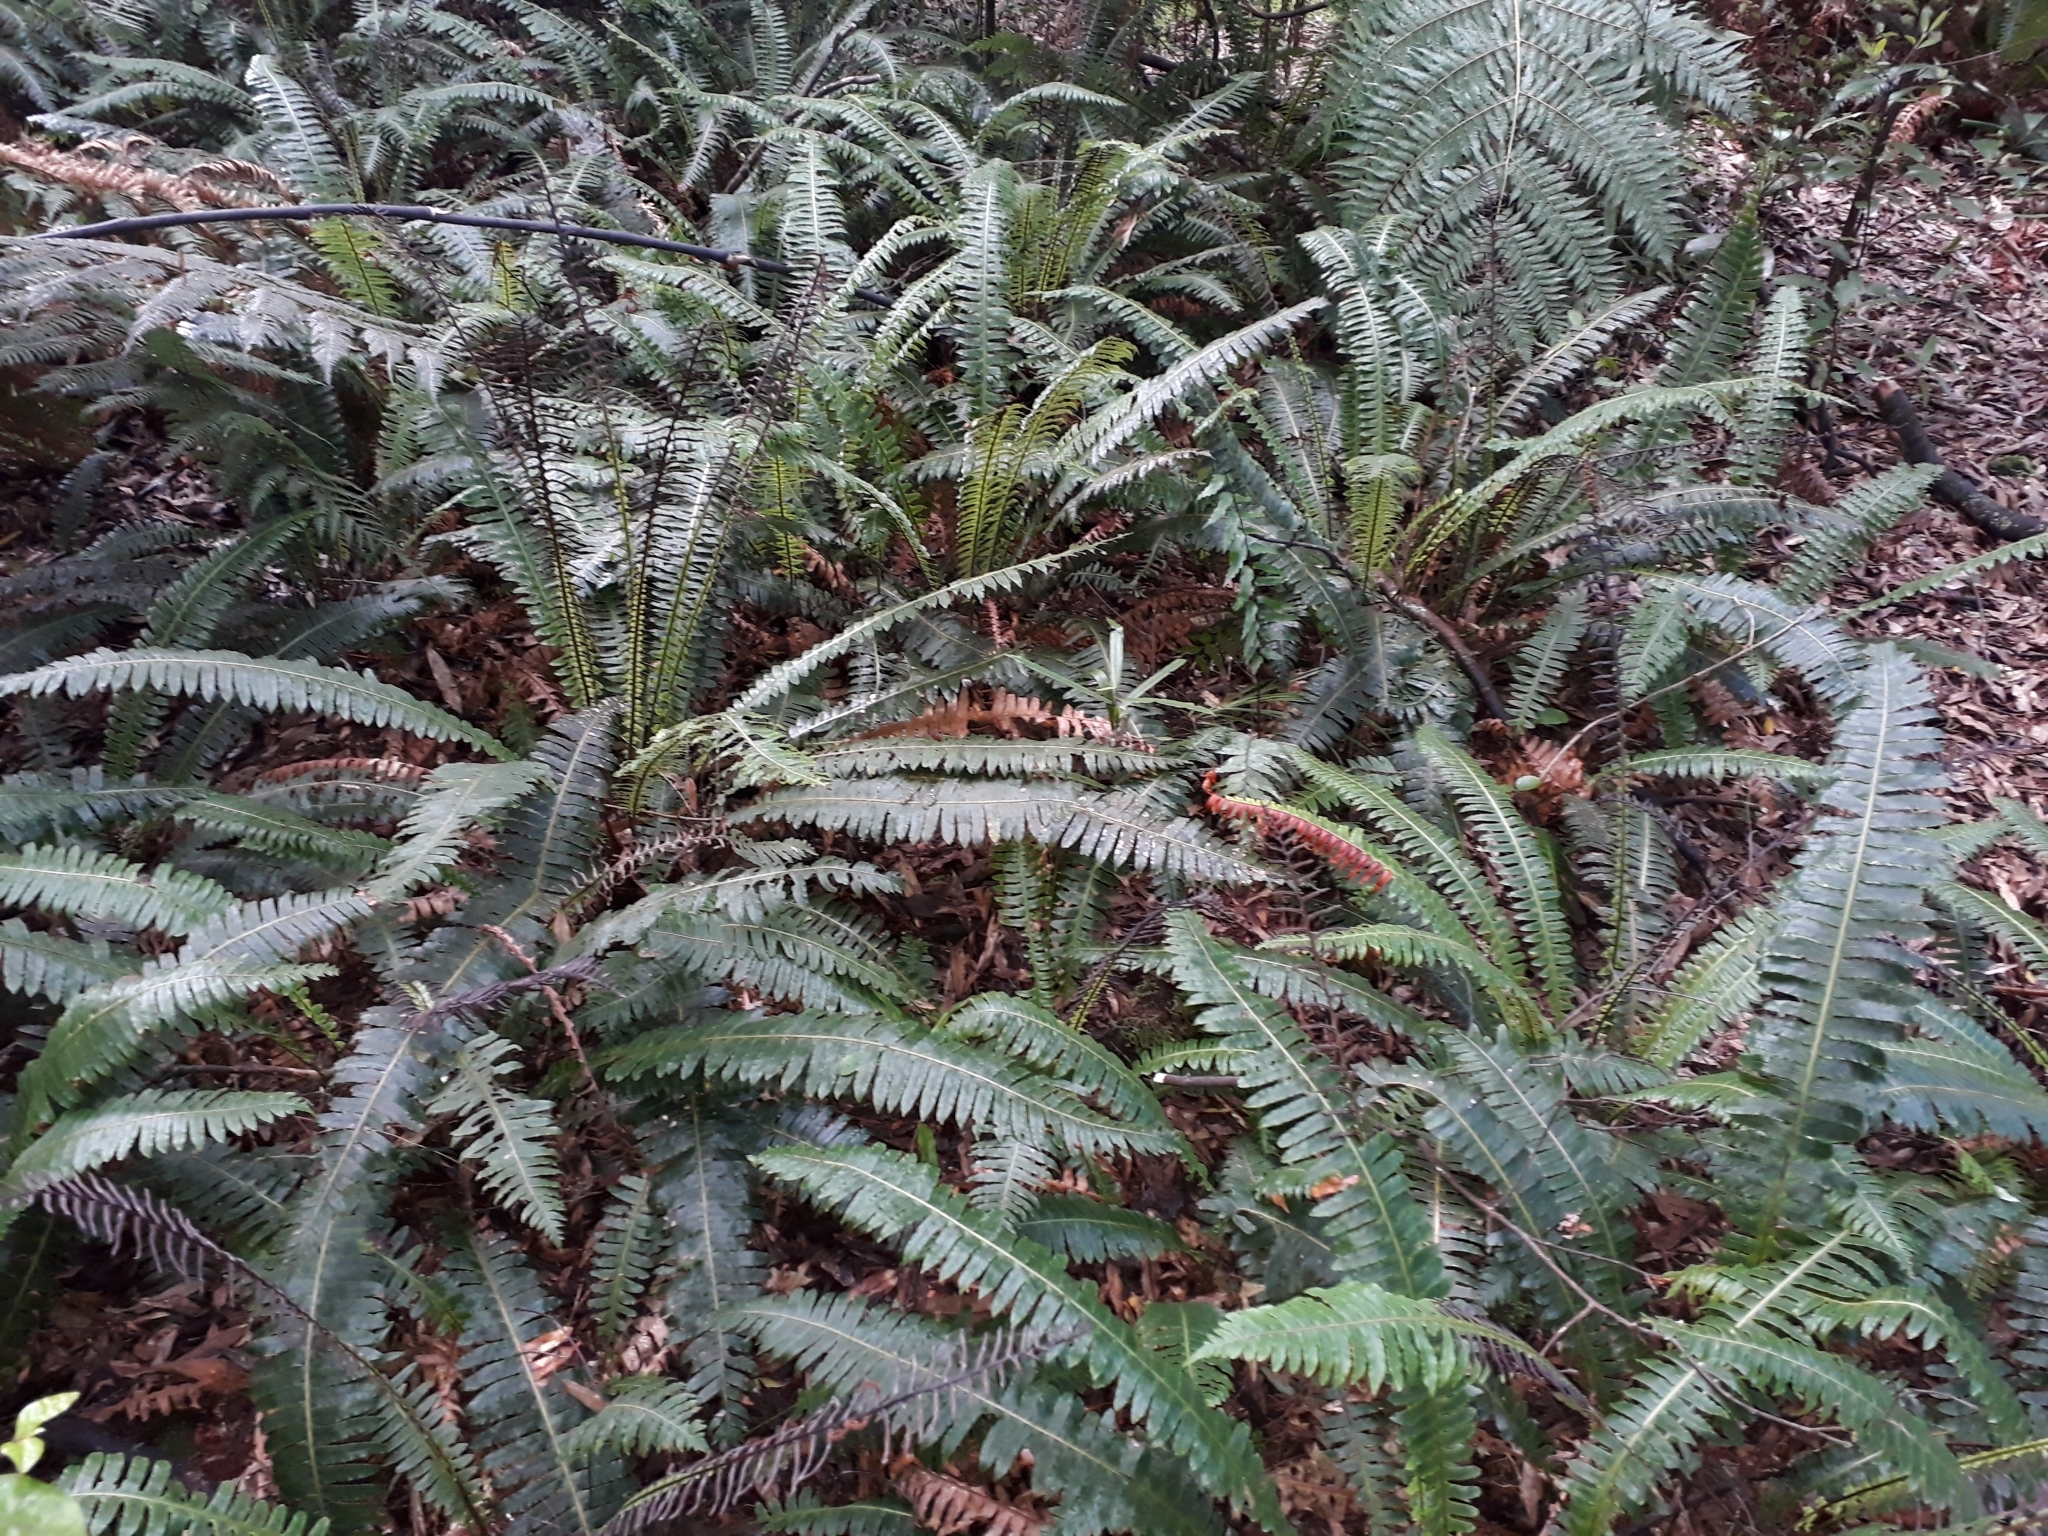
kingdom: Plantae
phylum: Tracheophyta
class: Polypodiopsida
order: Polypodiales
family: Blechnaceae
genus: Lomaria
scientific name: Lomaria discolor
